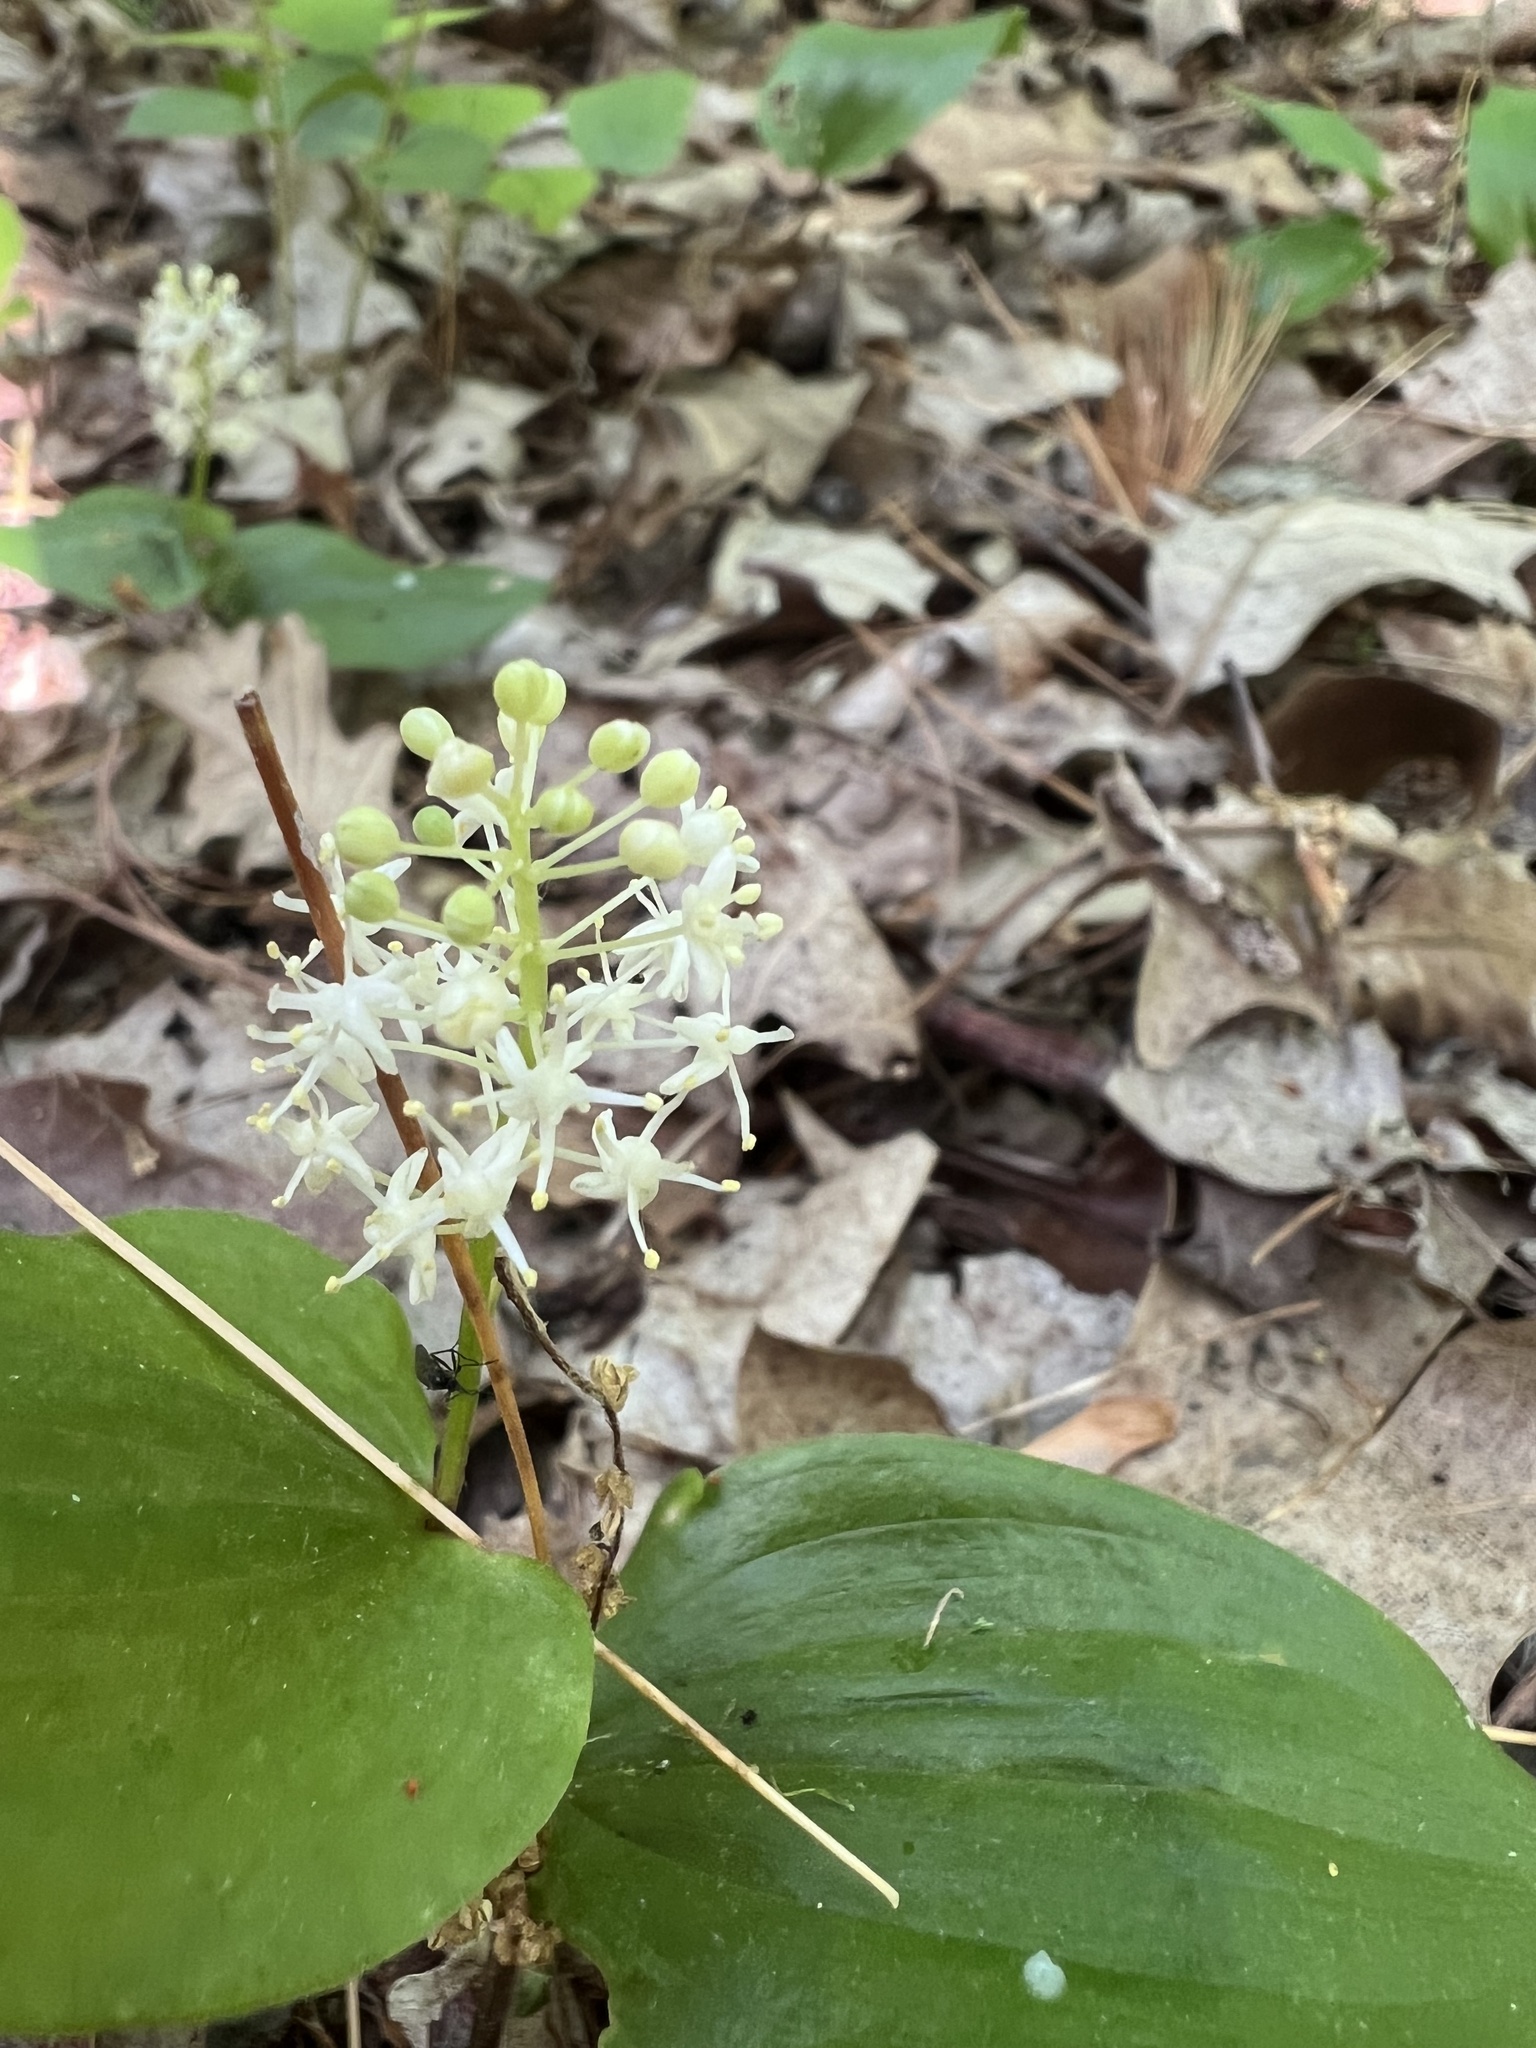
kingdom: Plantae
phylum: Tracheophyta
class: Liliopsida
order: Asparagales
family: Asparagaceae
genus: Maianthemum
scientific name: Maianthemum canadense
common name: False lily-of-the-valley
